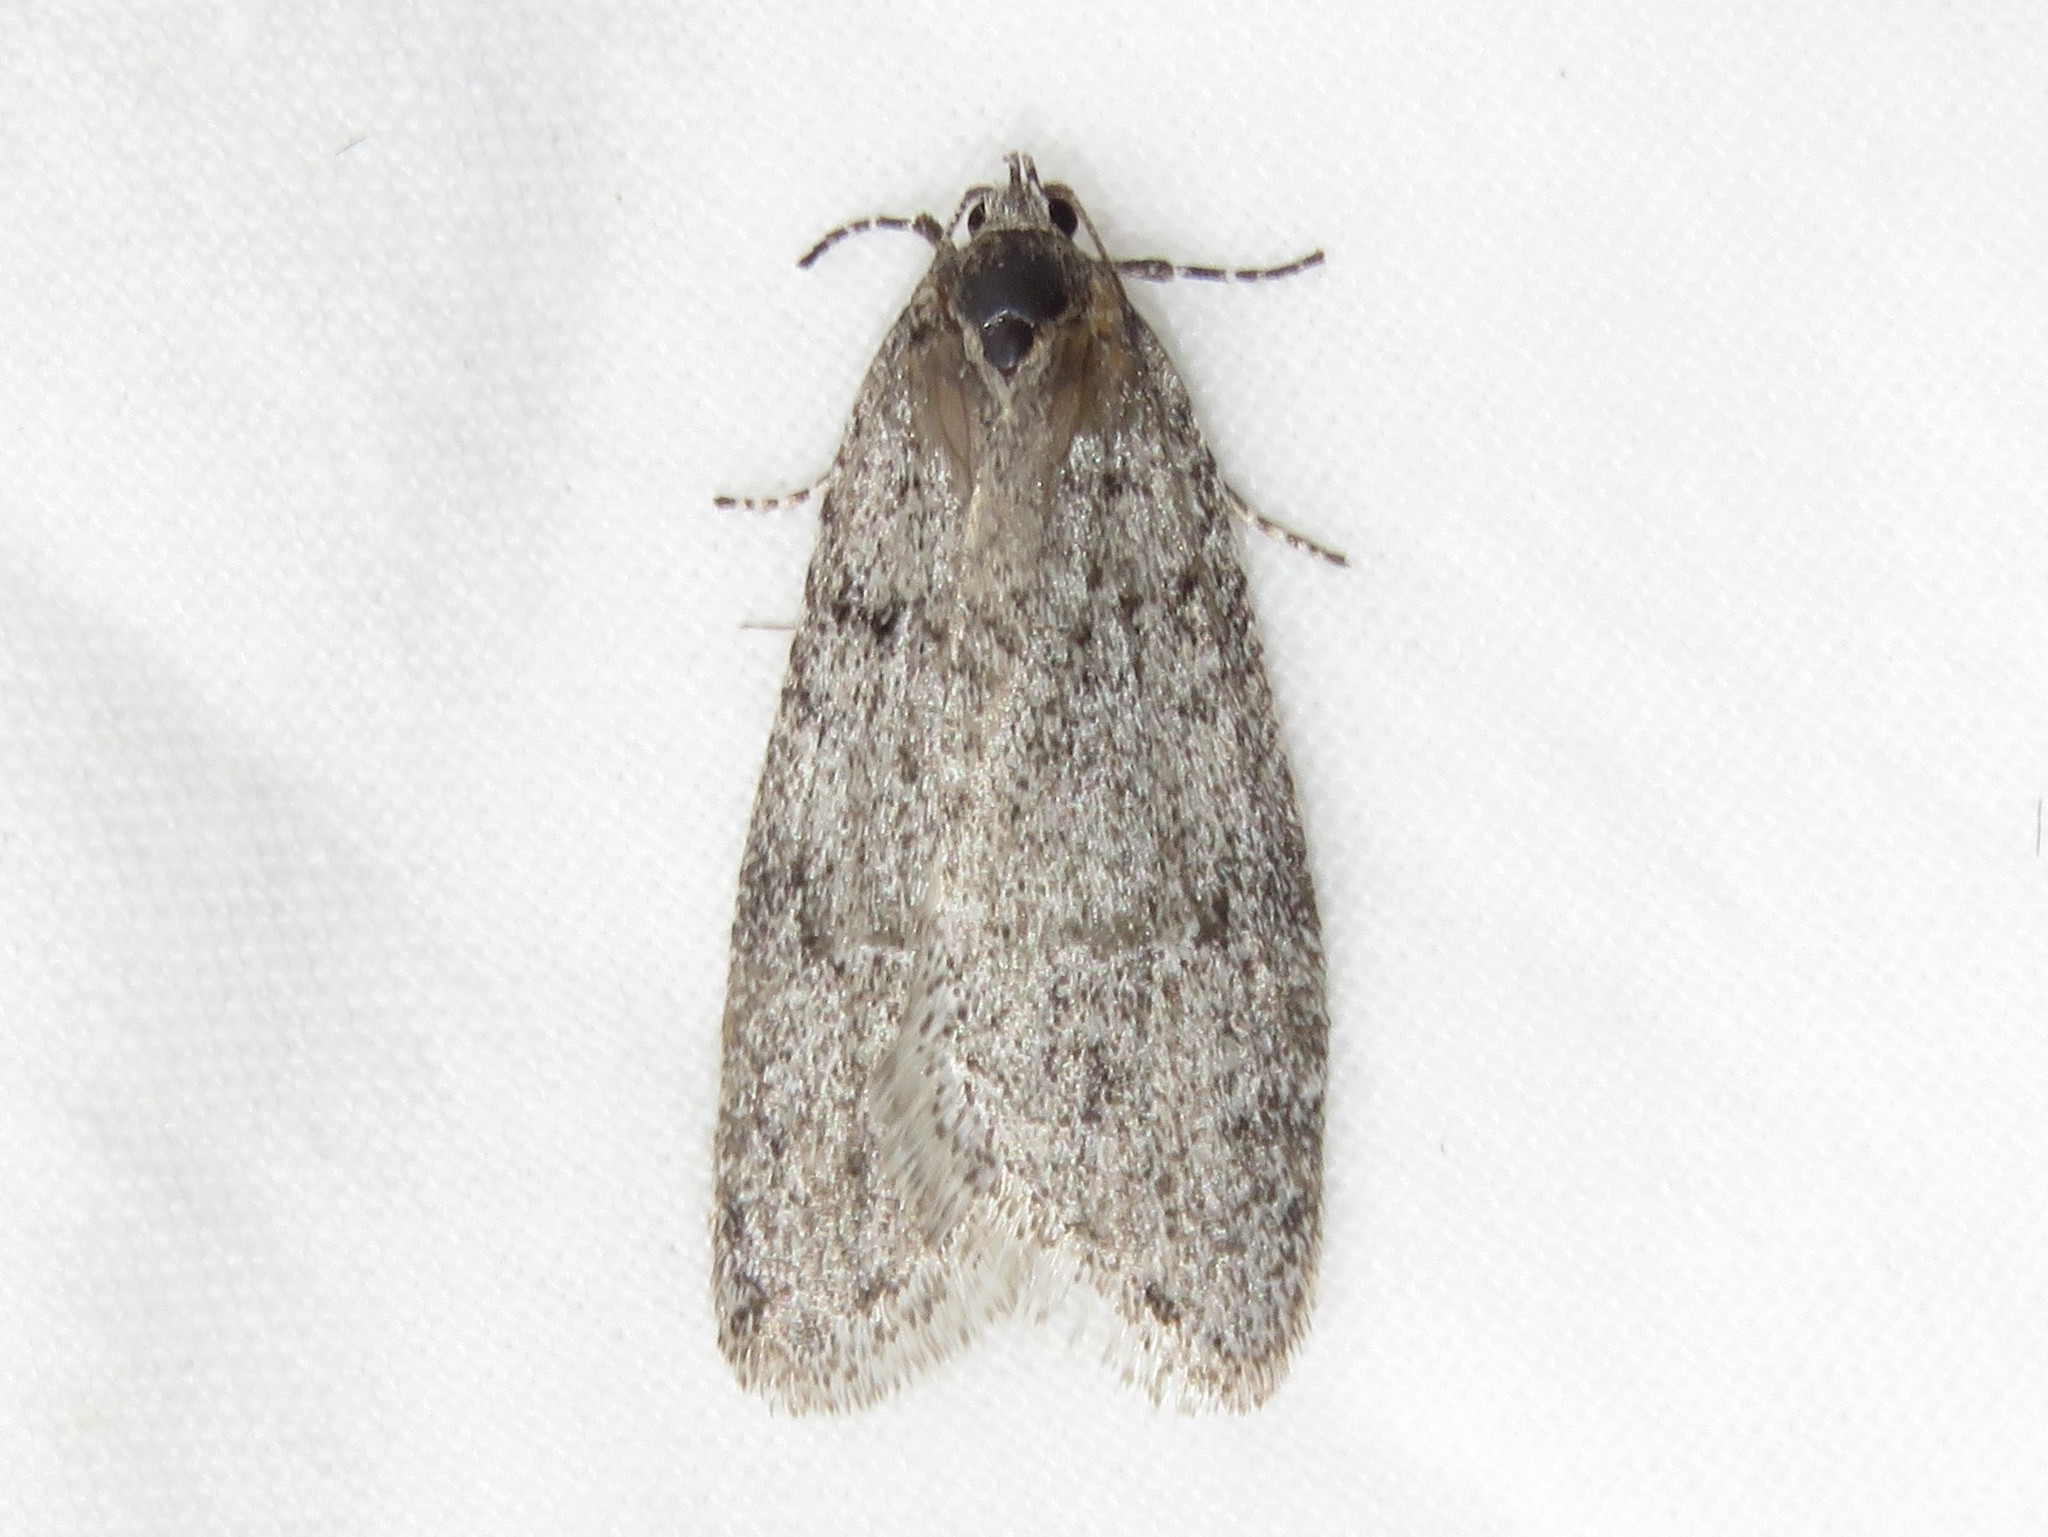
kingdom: Animalia
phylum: Arthropoda
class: Insecta
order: Lepidoptera
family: Depressariidae
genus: Semioscopis
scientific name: Semioscopis inornata
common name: Poplar micromoth
